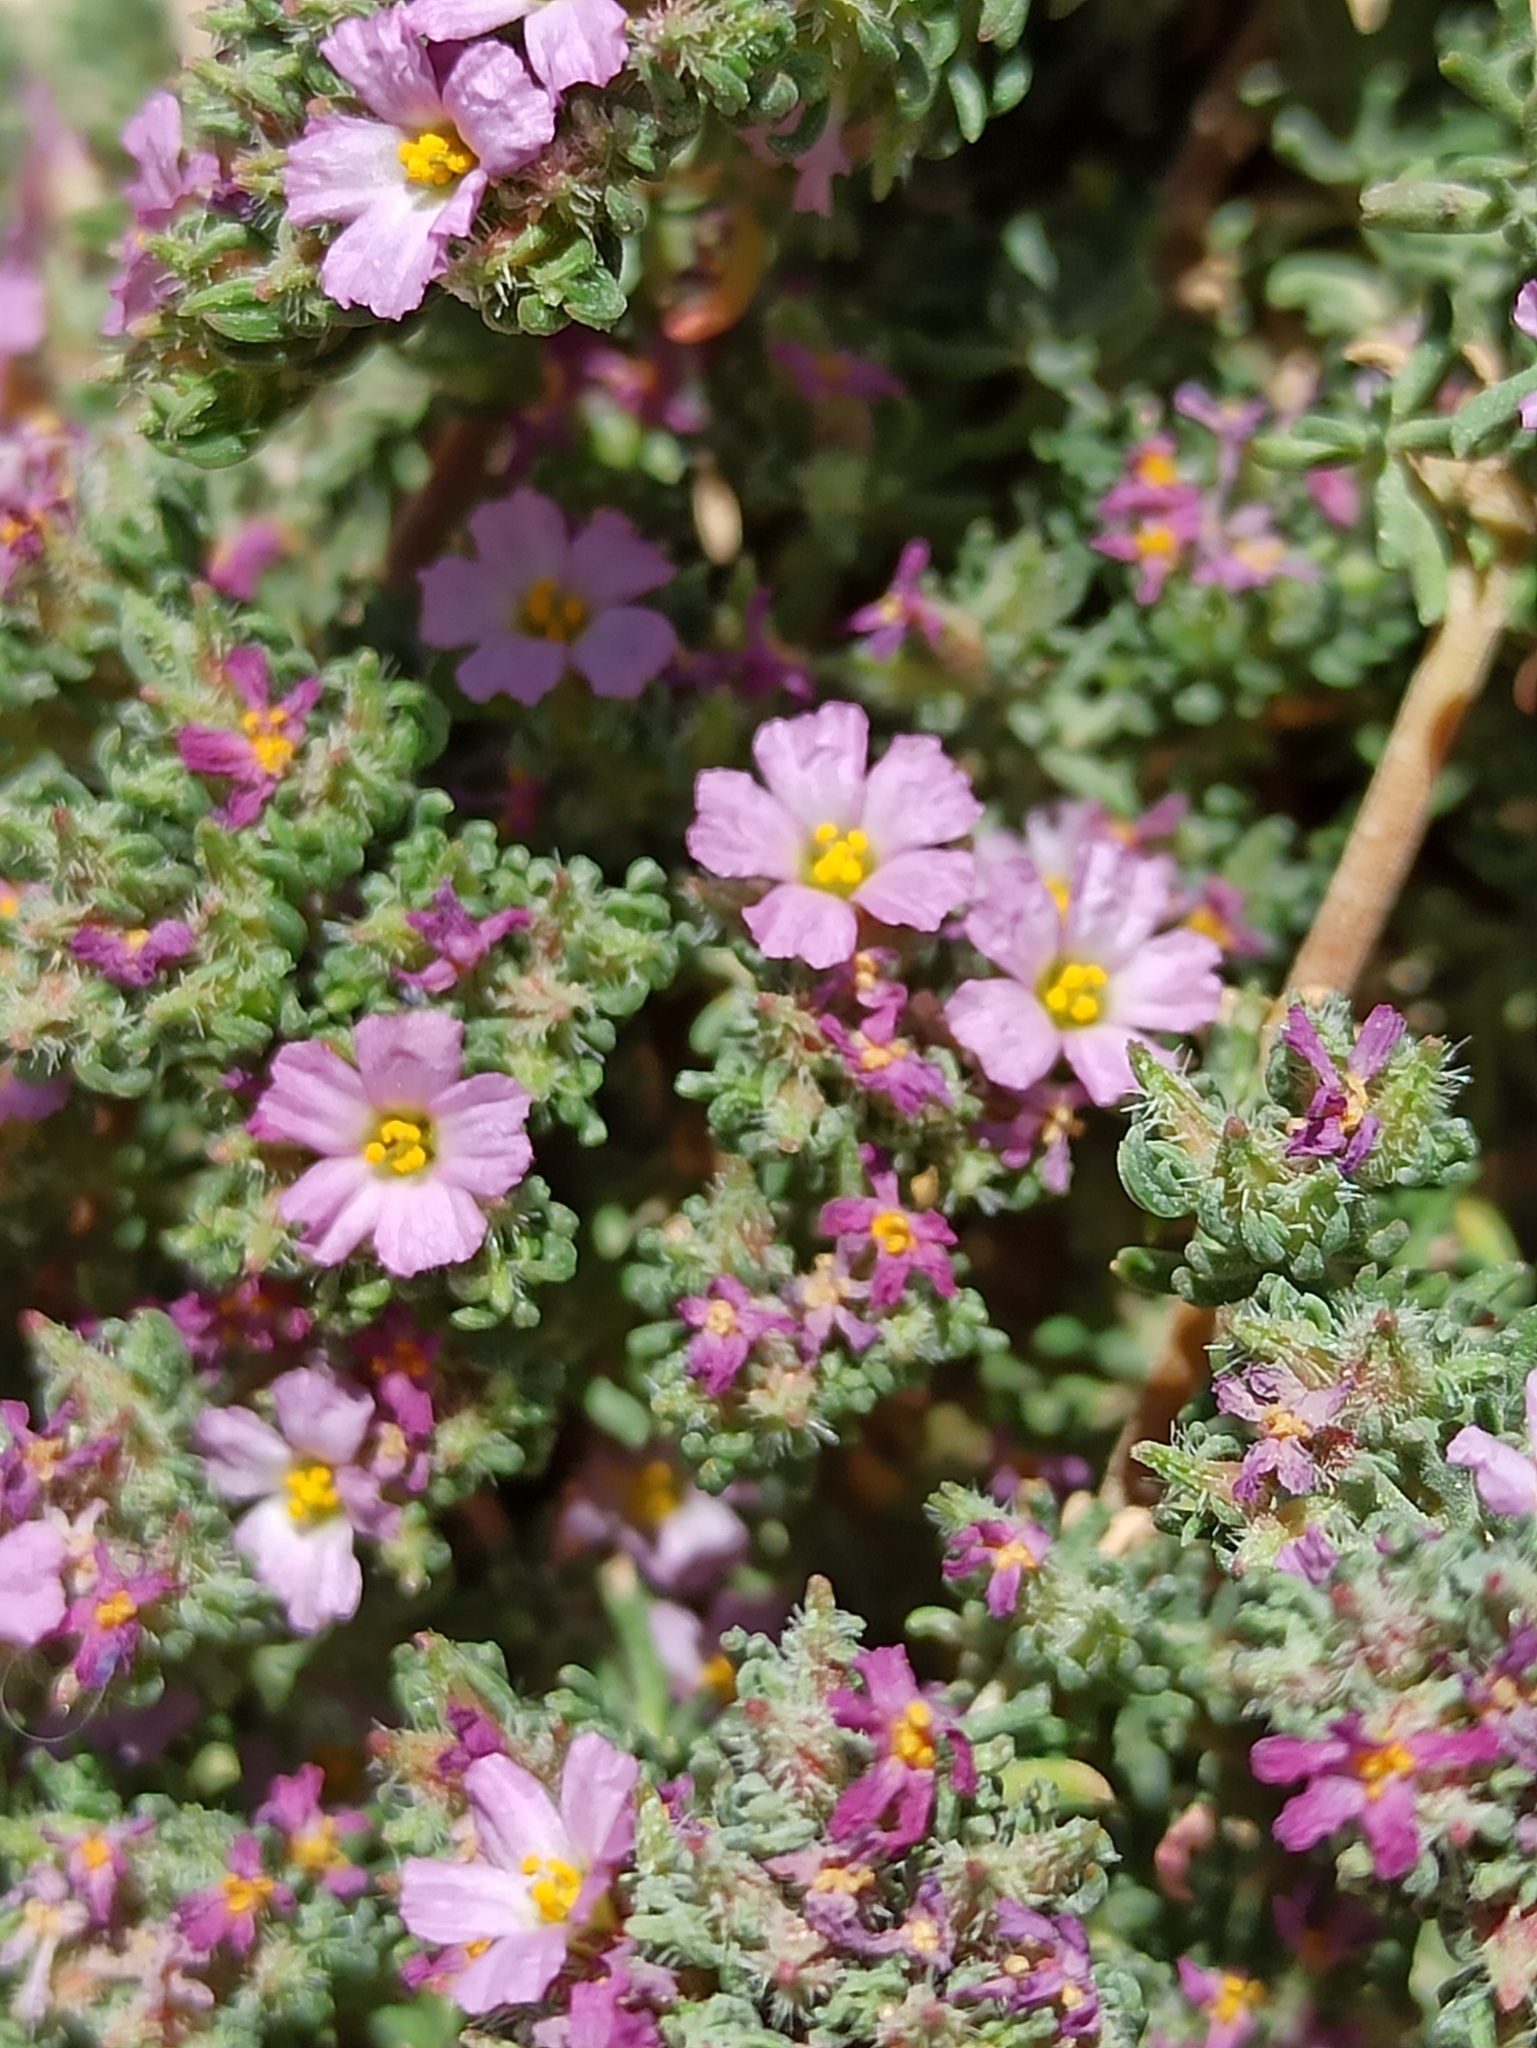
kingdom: Plantae
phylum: Tracheophyta
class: Magnoliopsida
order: Caryophyllales
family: Frankeniaceae
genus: Frankenia
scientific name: Frankenia hirsuta
